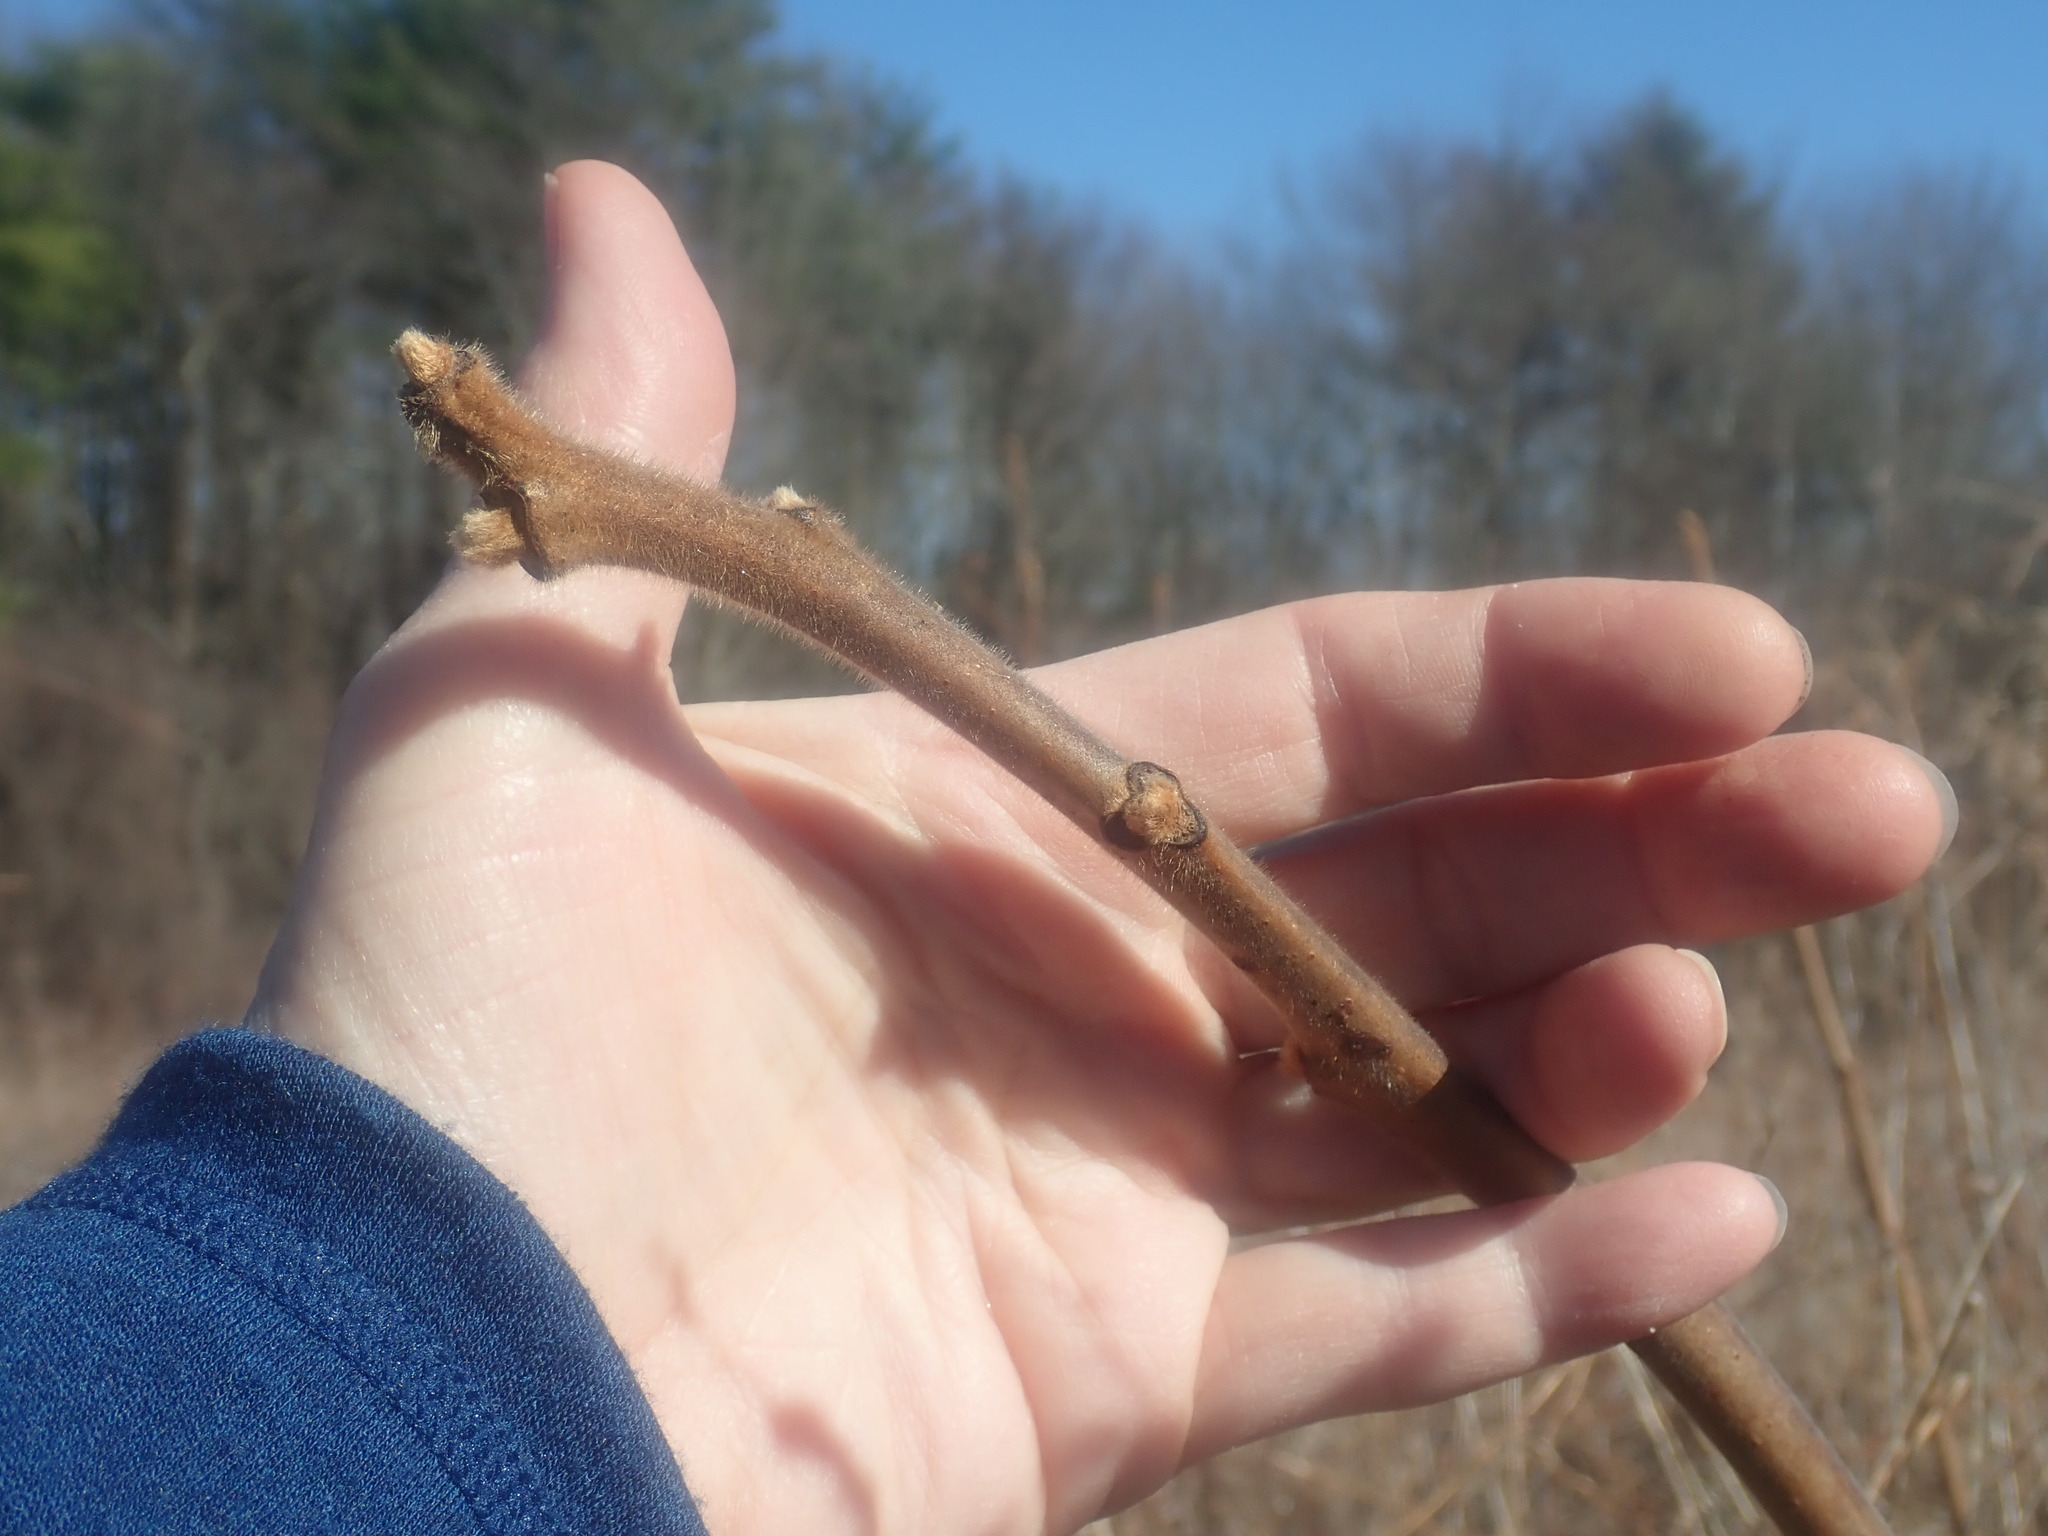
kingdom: Plantae
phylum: Tracheophyta
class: Magnoliopsida
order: Sapindales
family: Anacardiaceae
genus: Rhus
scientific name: Rhus typhina
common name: Staghorn sumac
